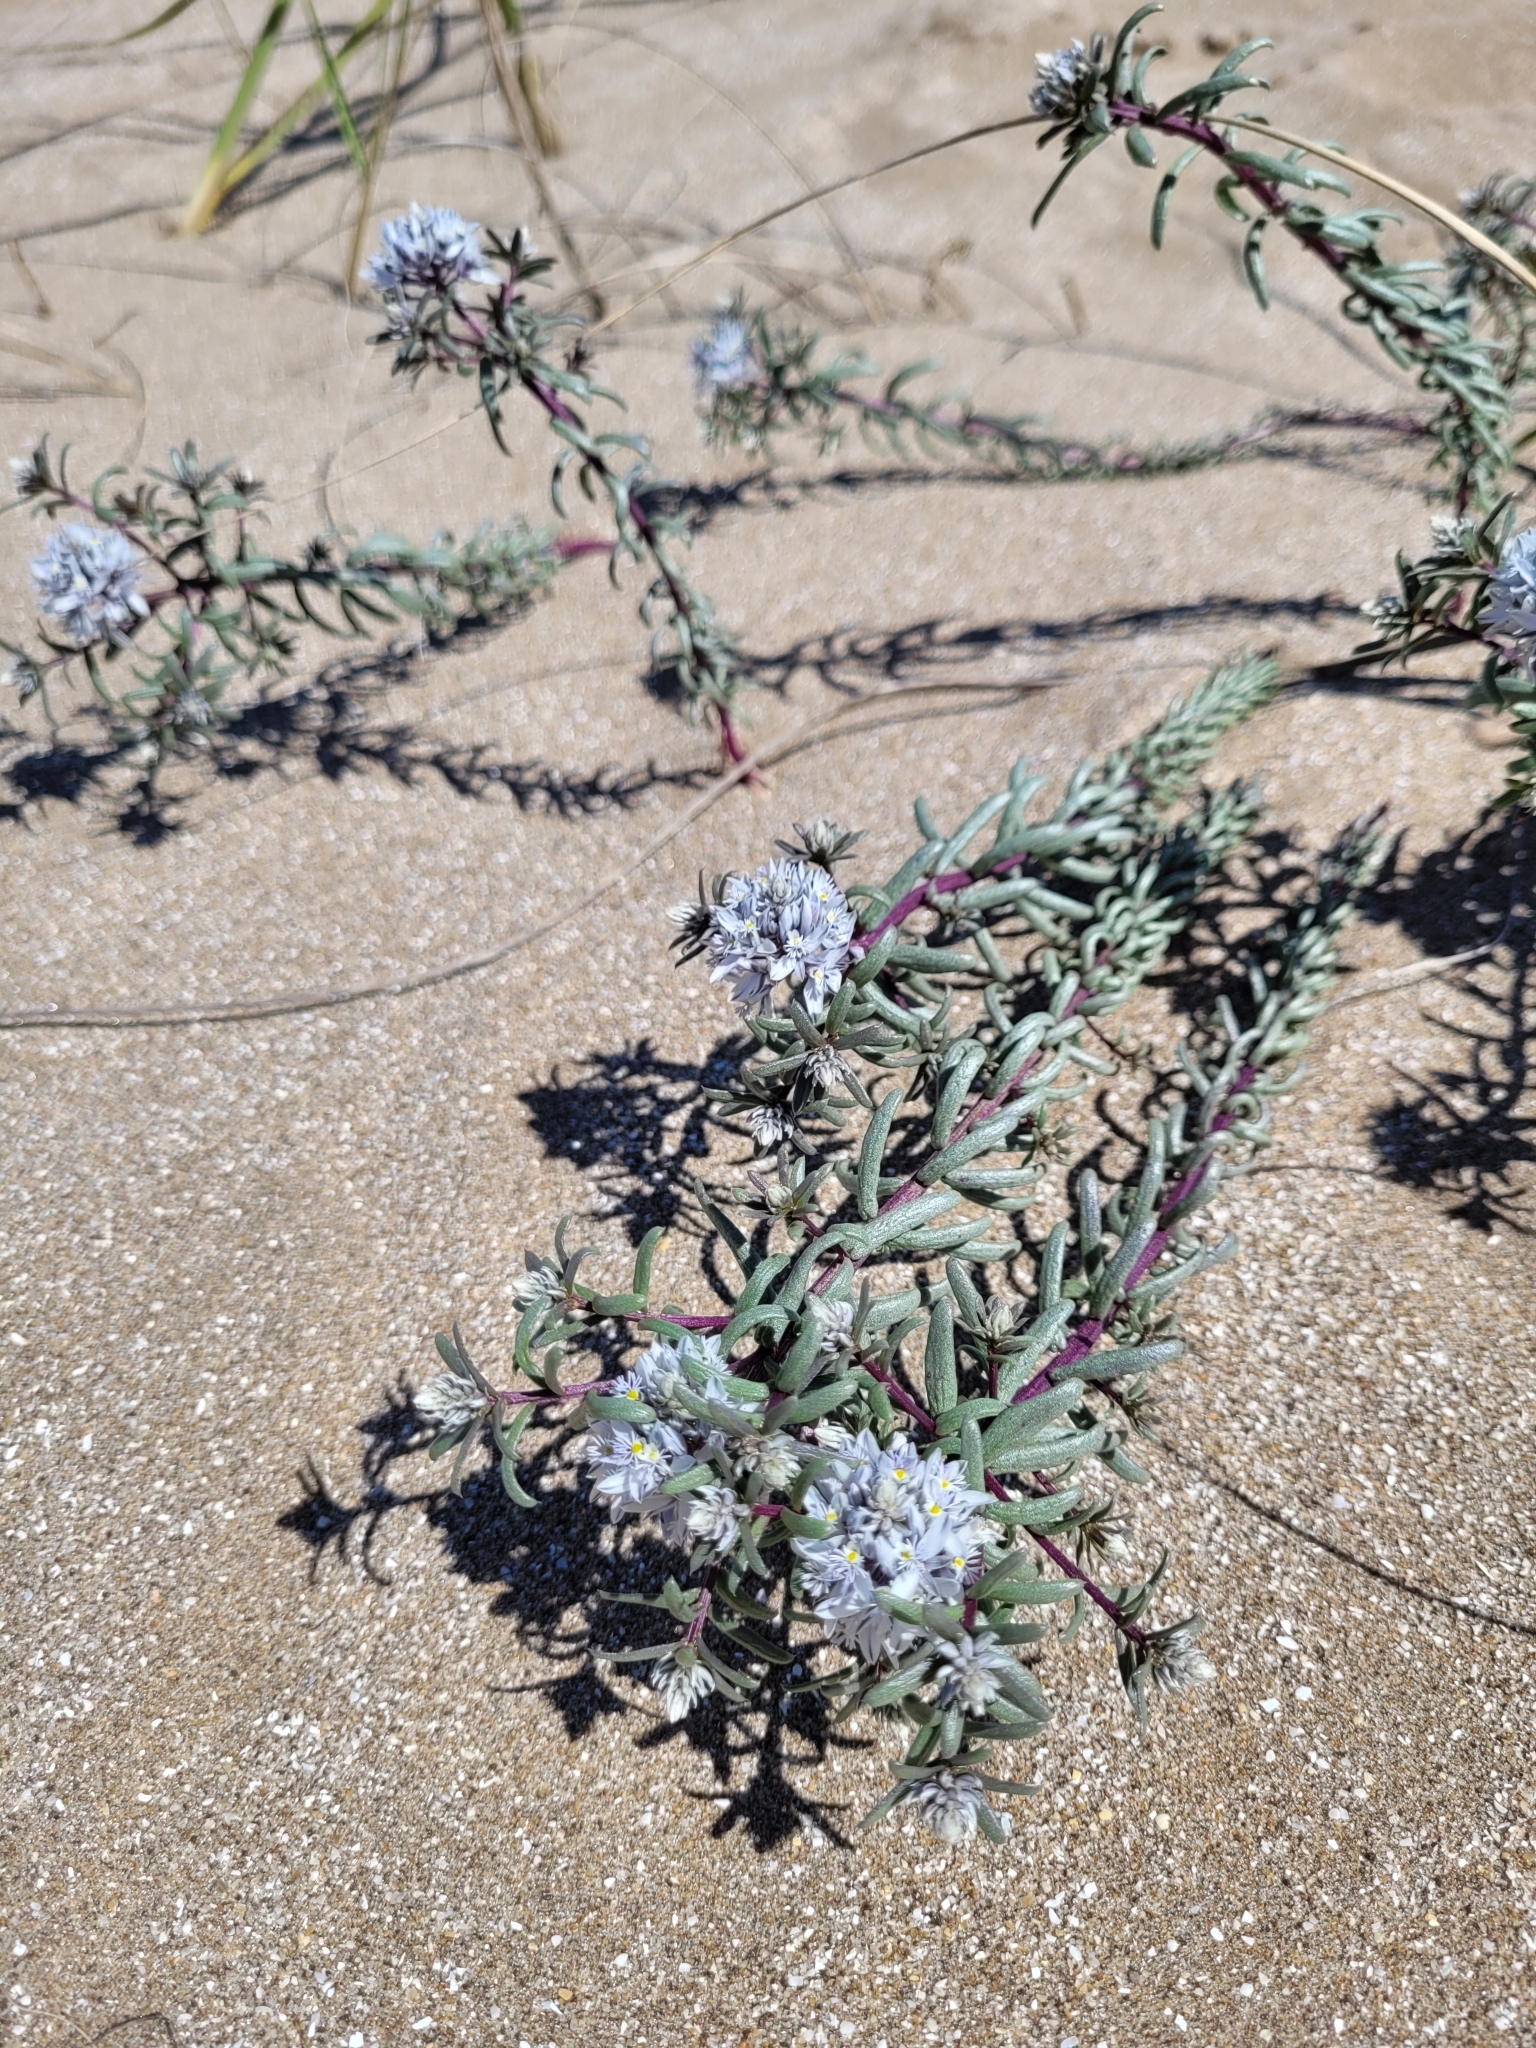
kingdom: Plantae
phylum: Tracheophyta
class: Magnoliopsida
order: Fabales
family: Polygalaceae
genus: Polygala
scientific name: Polygala cyparissias
